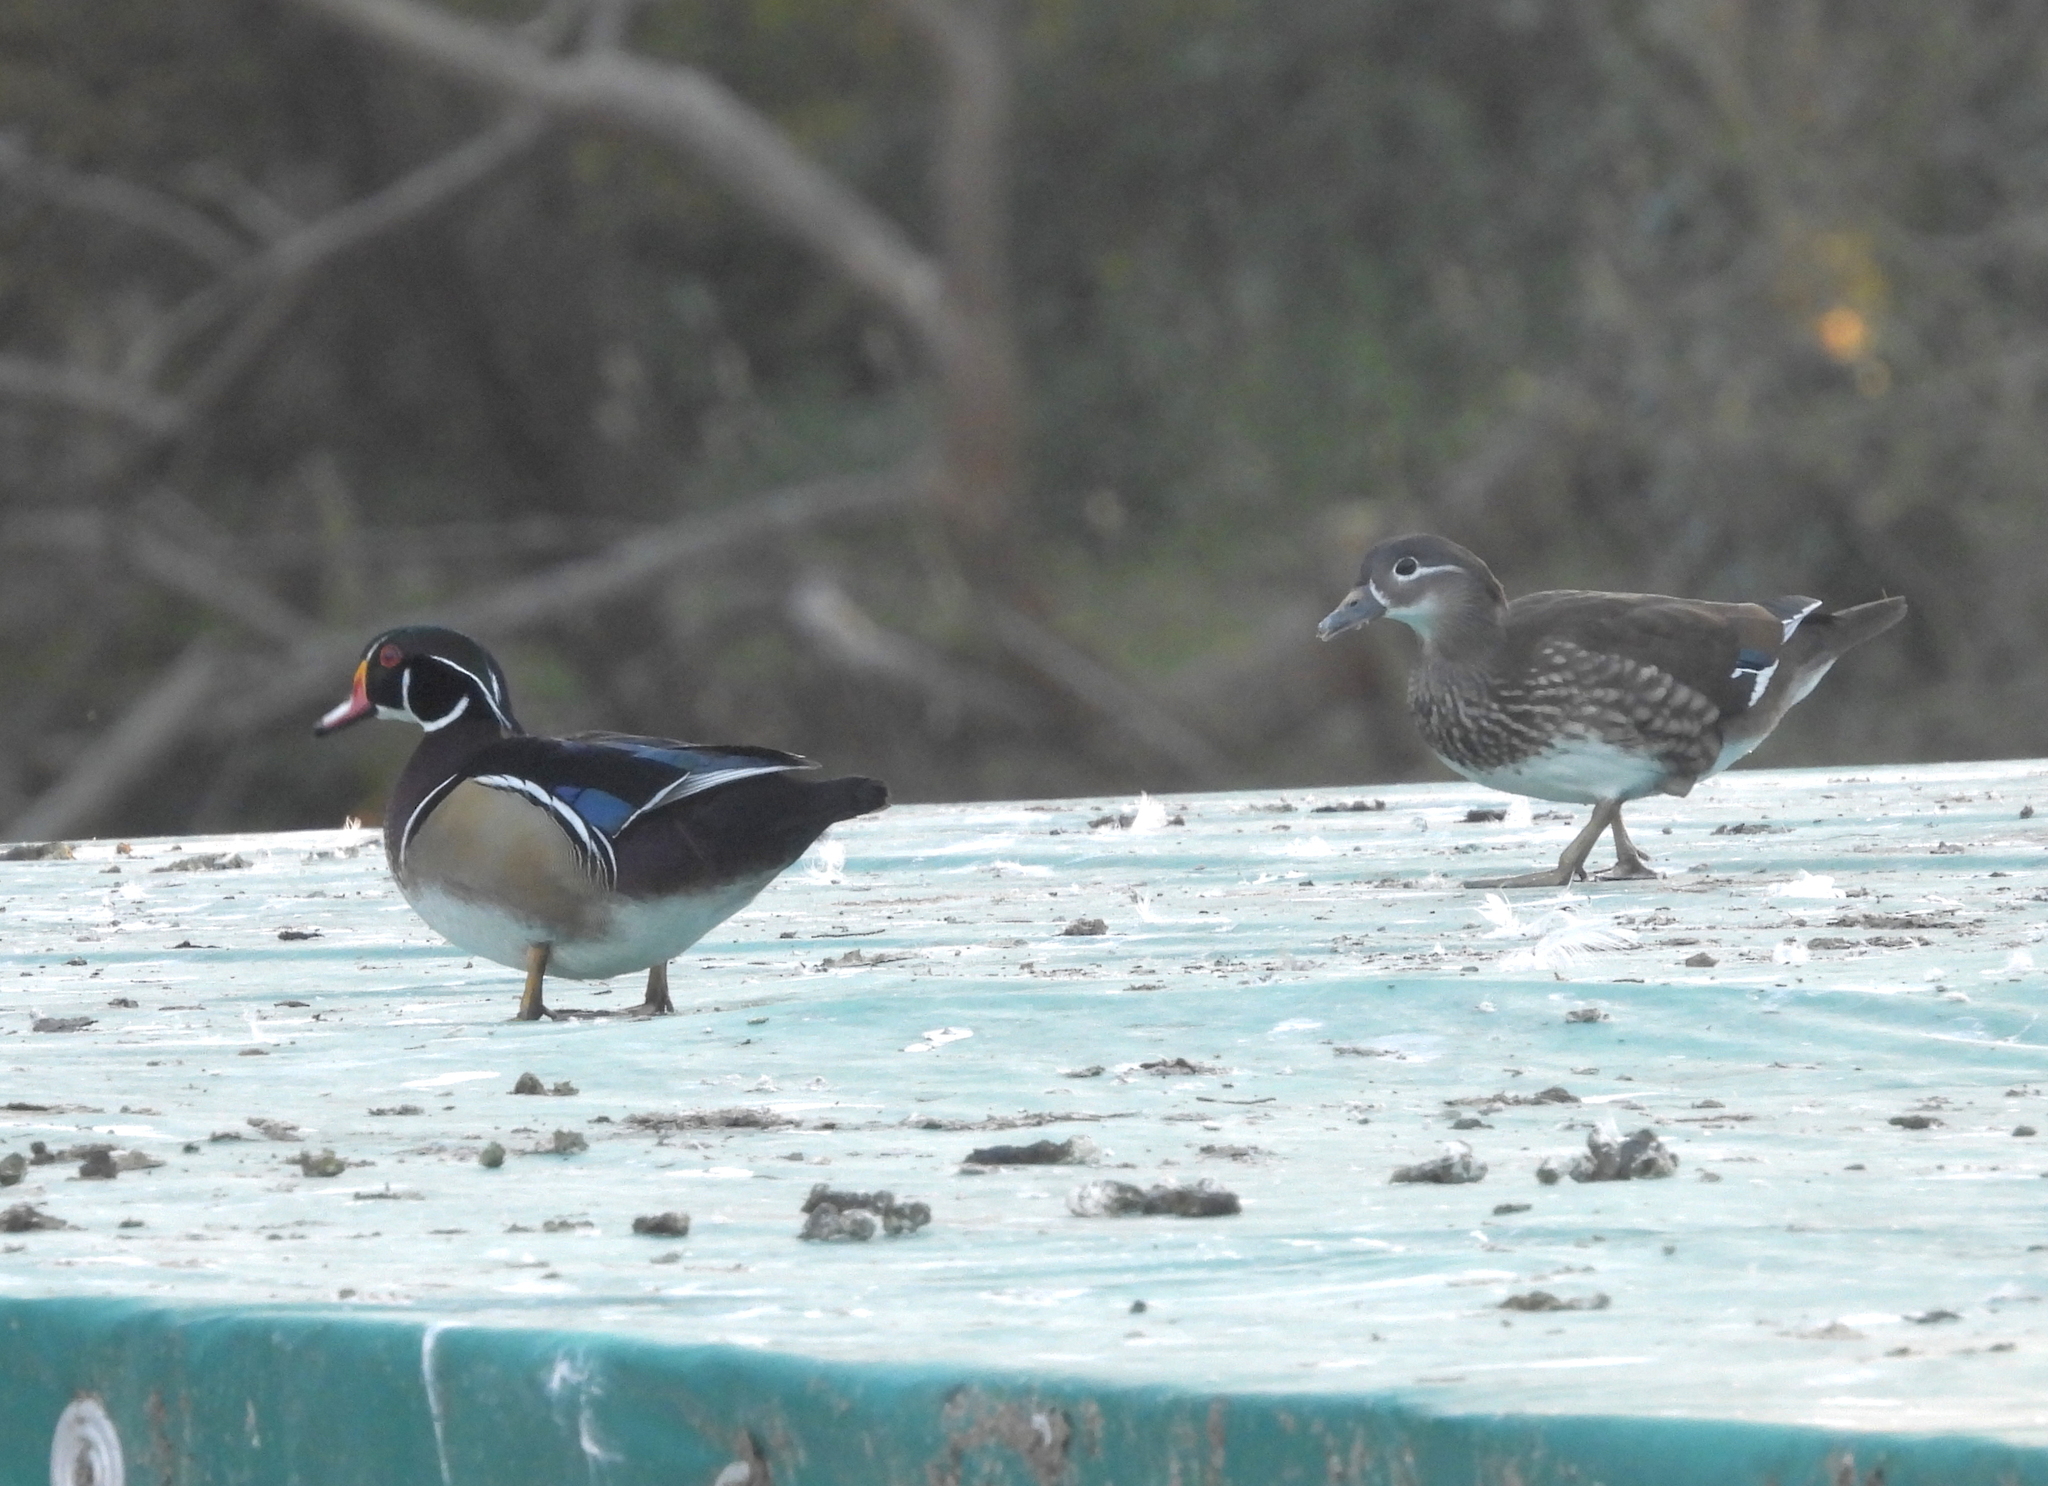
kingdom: Animalia
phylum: Chordata
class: Aves
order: Anseriformes
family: Anatidae
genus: Aix
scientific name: Aix galericulata
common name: Mandarin duck
